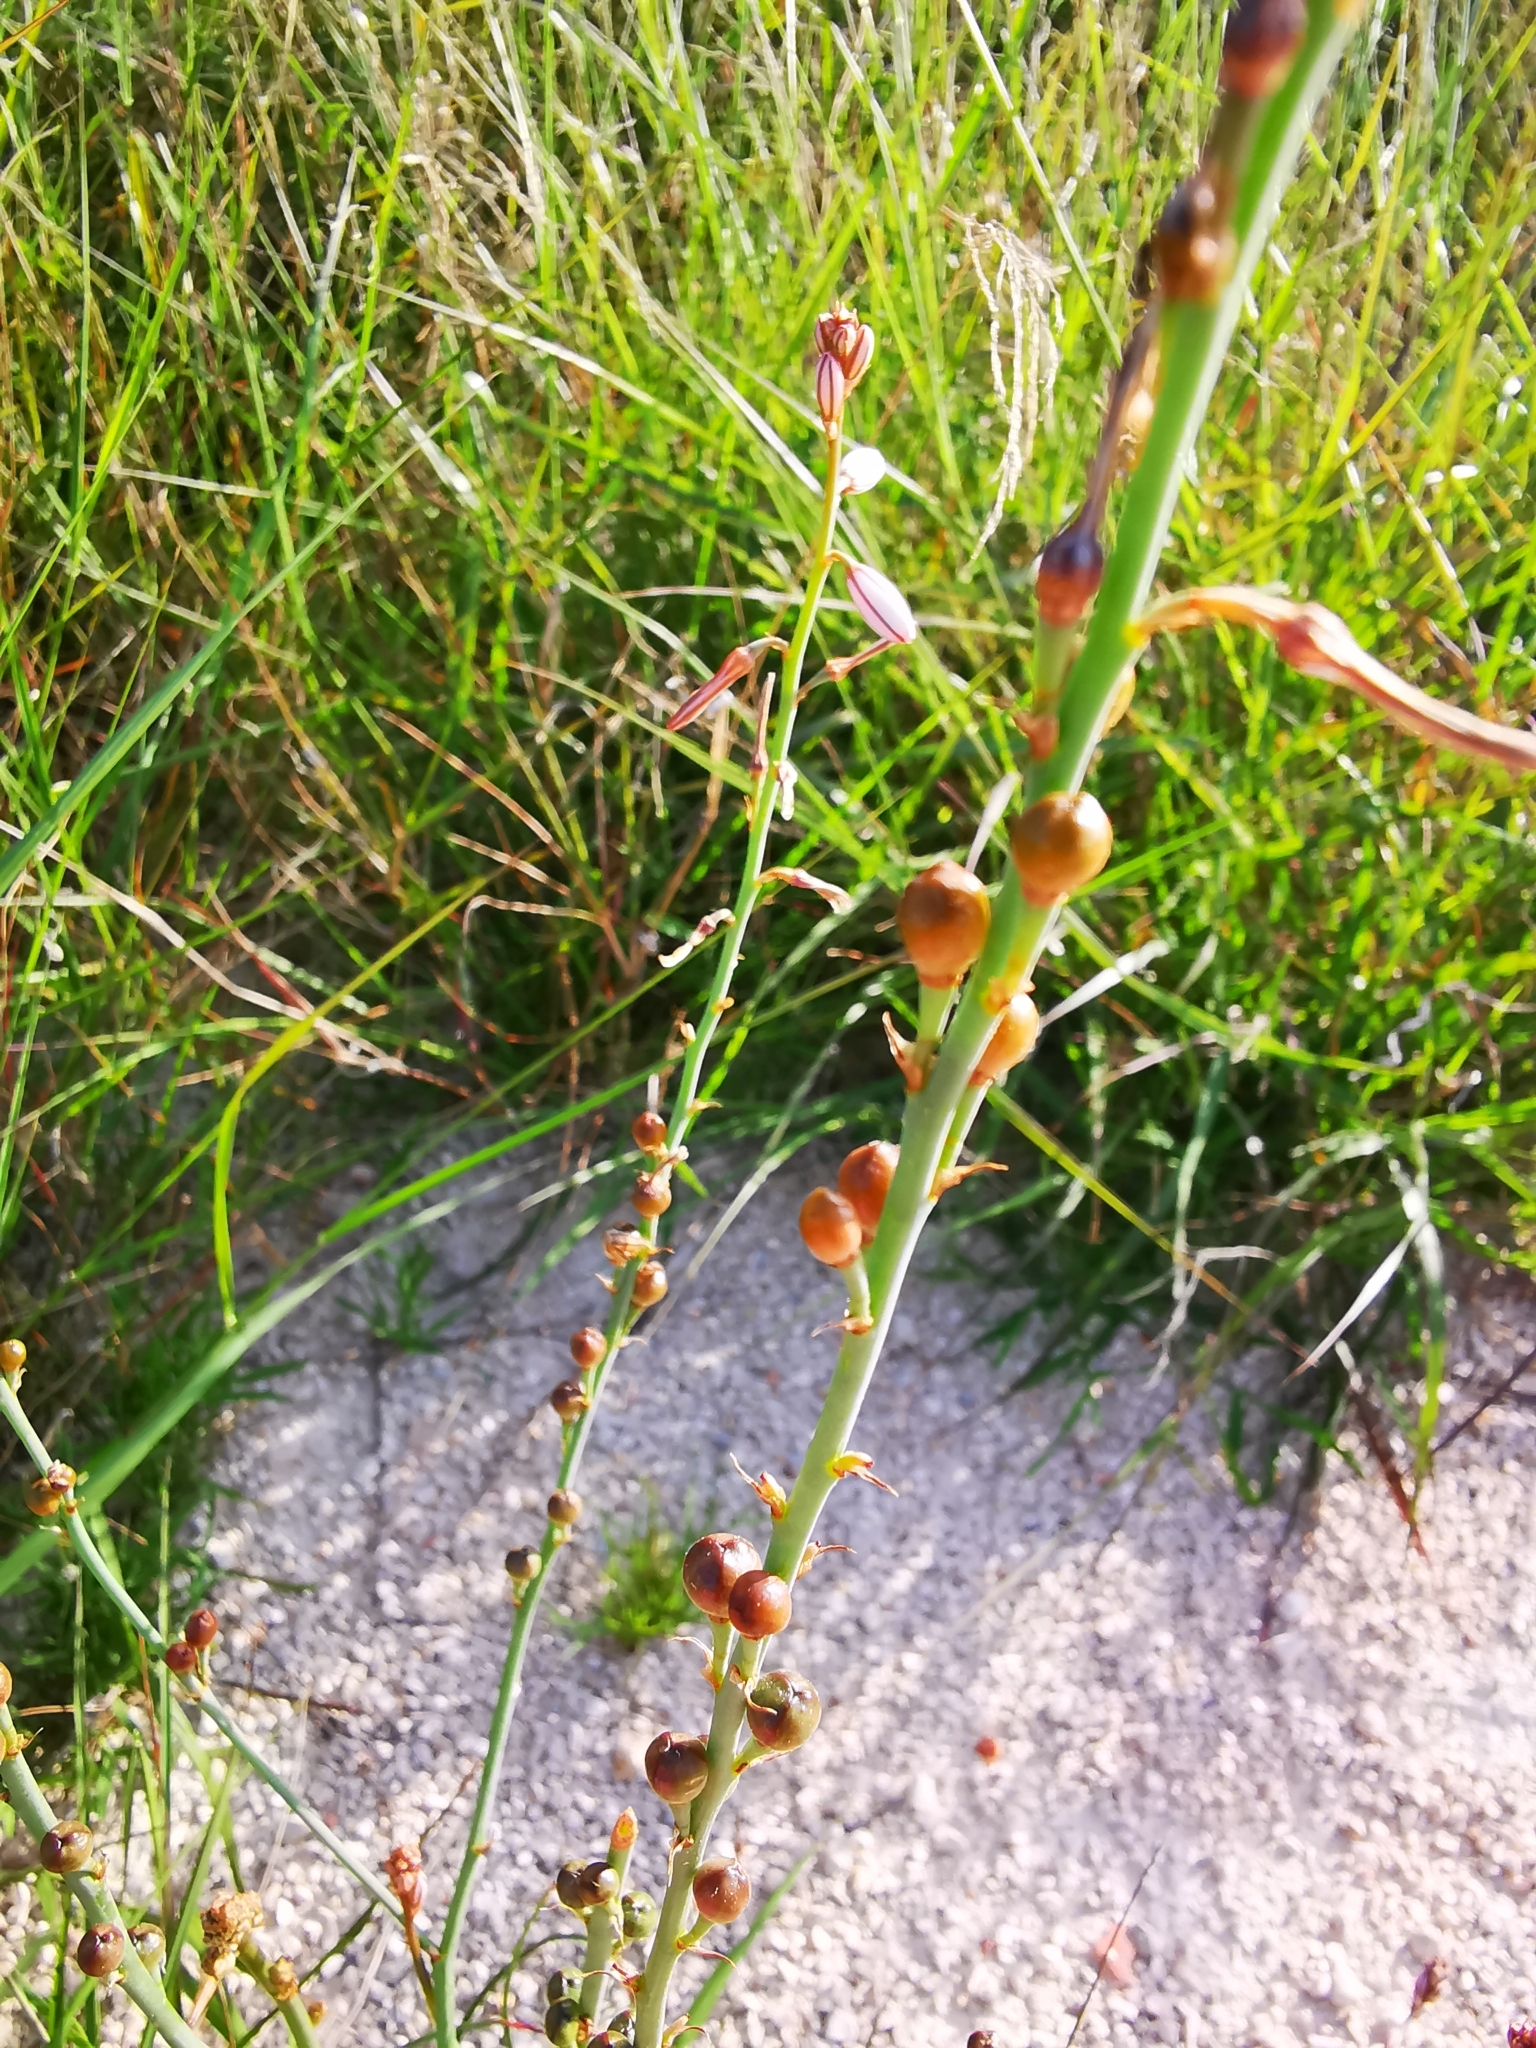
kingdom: Plantae
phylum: Tracheophyta
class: Liliopsida
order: Asparagales
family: Asphodelaceae
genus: Asphodelus
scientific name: Asphodelus fistulosus
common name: Onionweed
